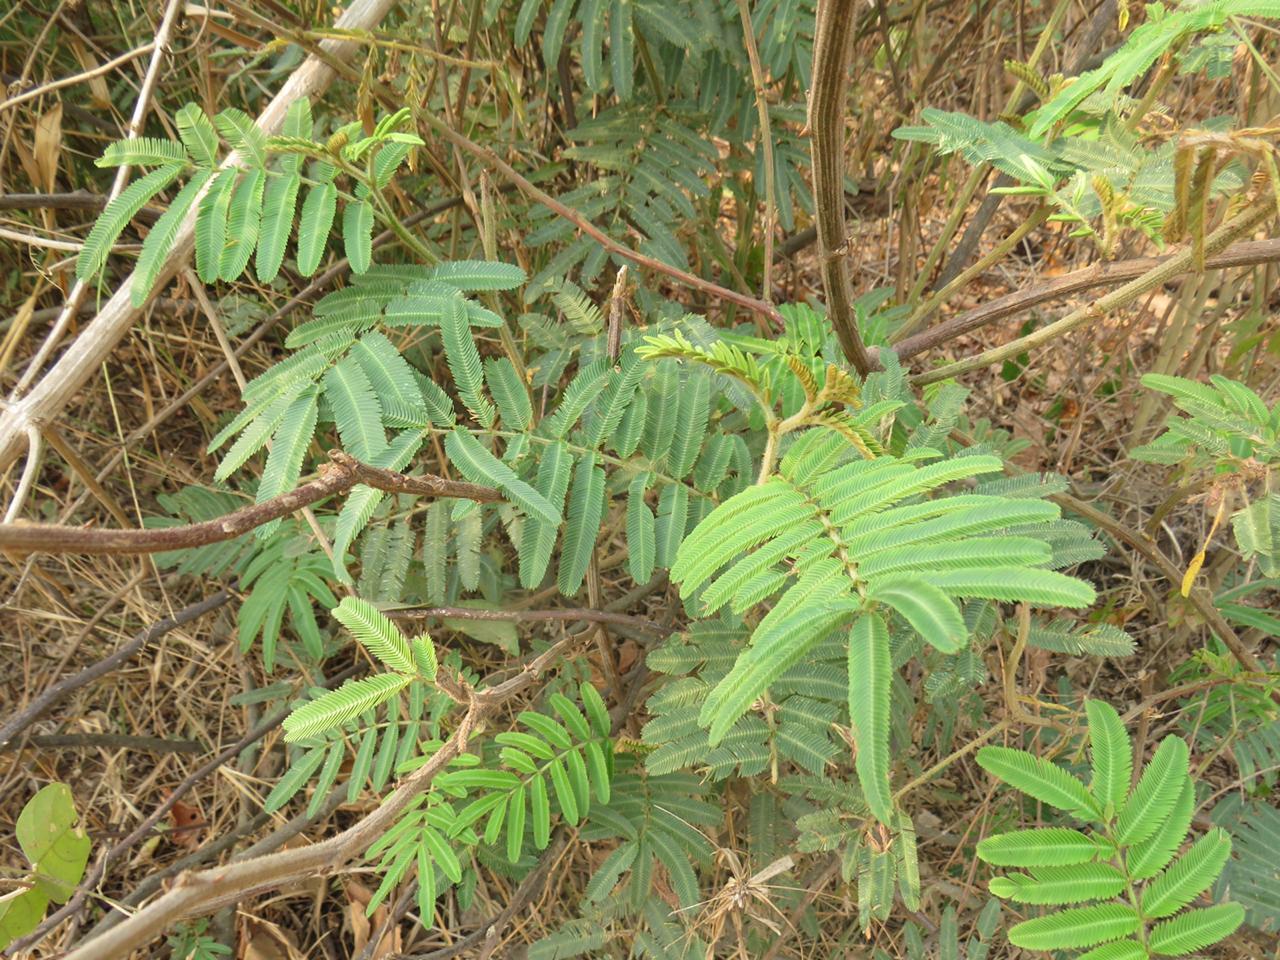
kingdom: Plantae
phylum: Tracheophyta
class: Magnoliopsida
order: Fabales
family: Fabaceae
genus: Piptadenia
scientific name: Piptadenia retusa
